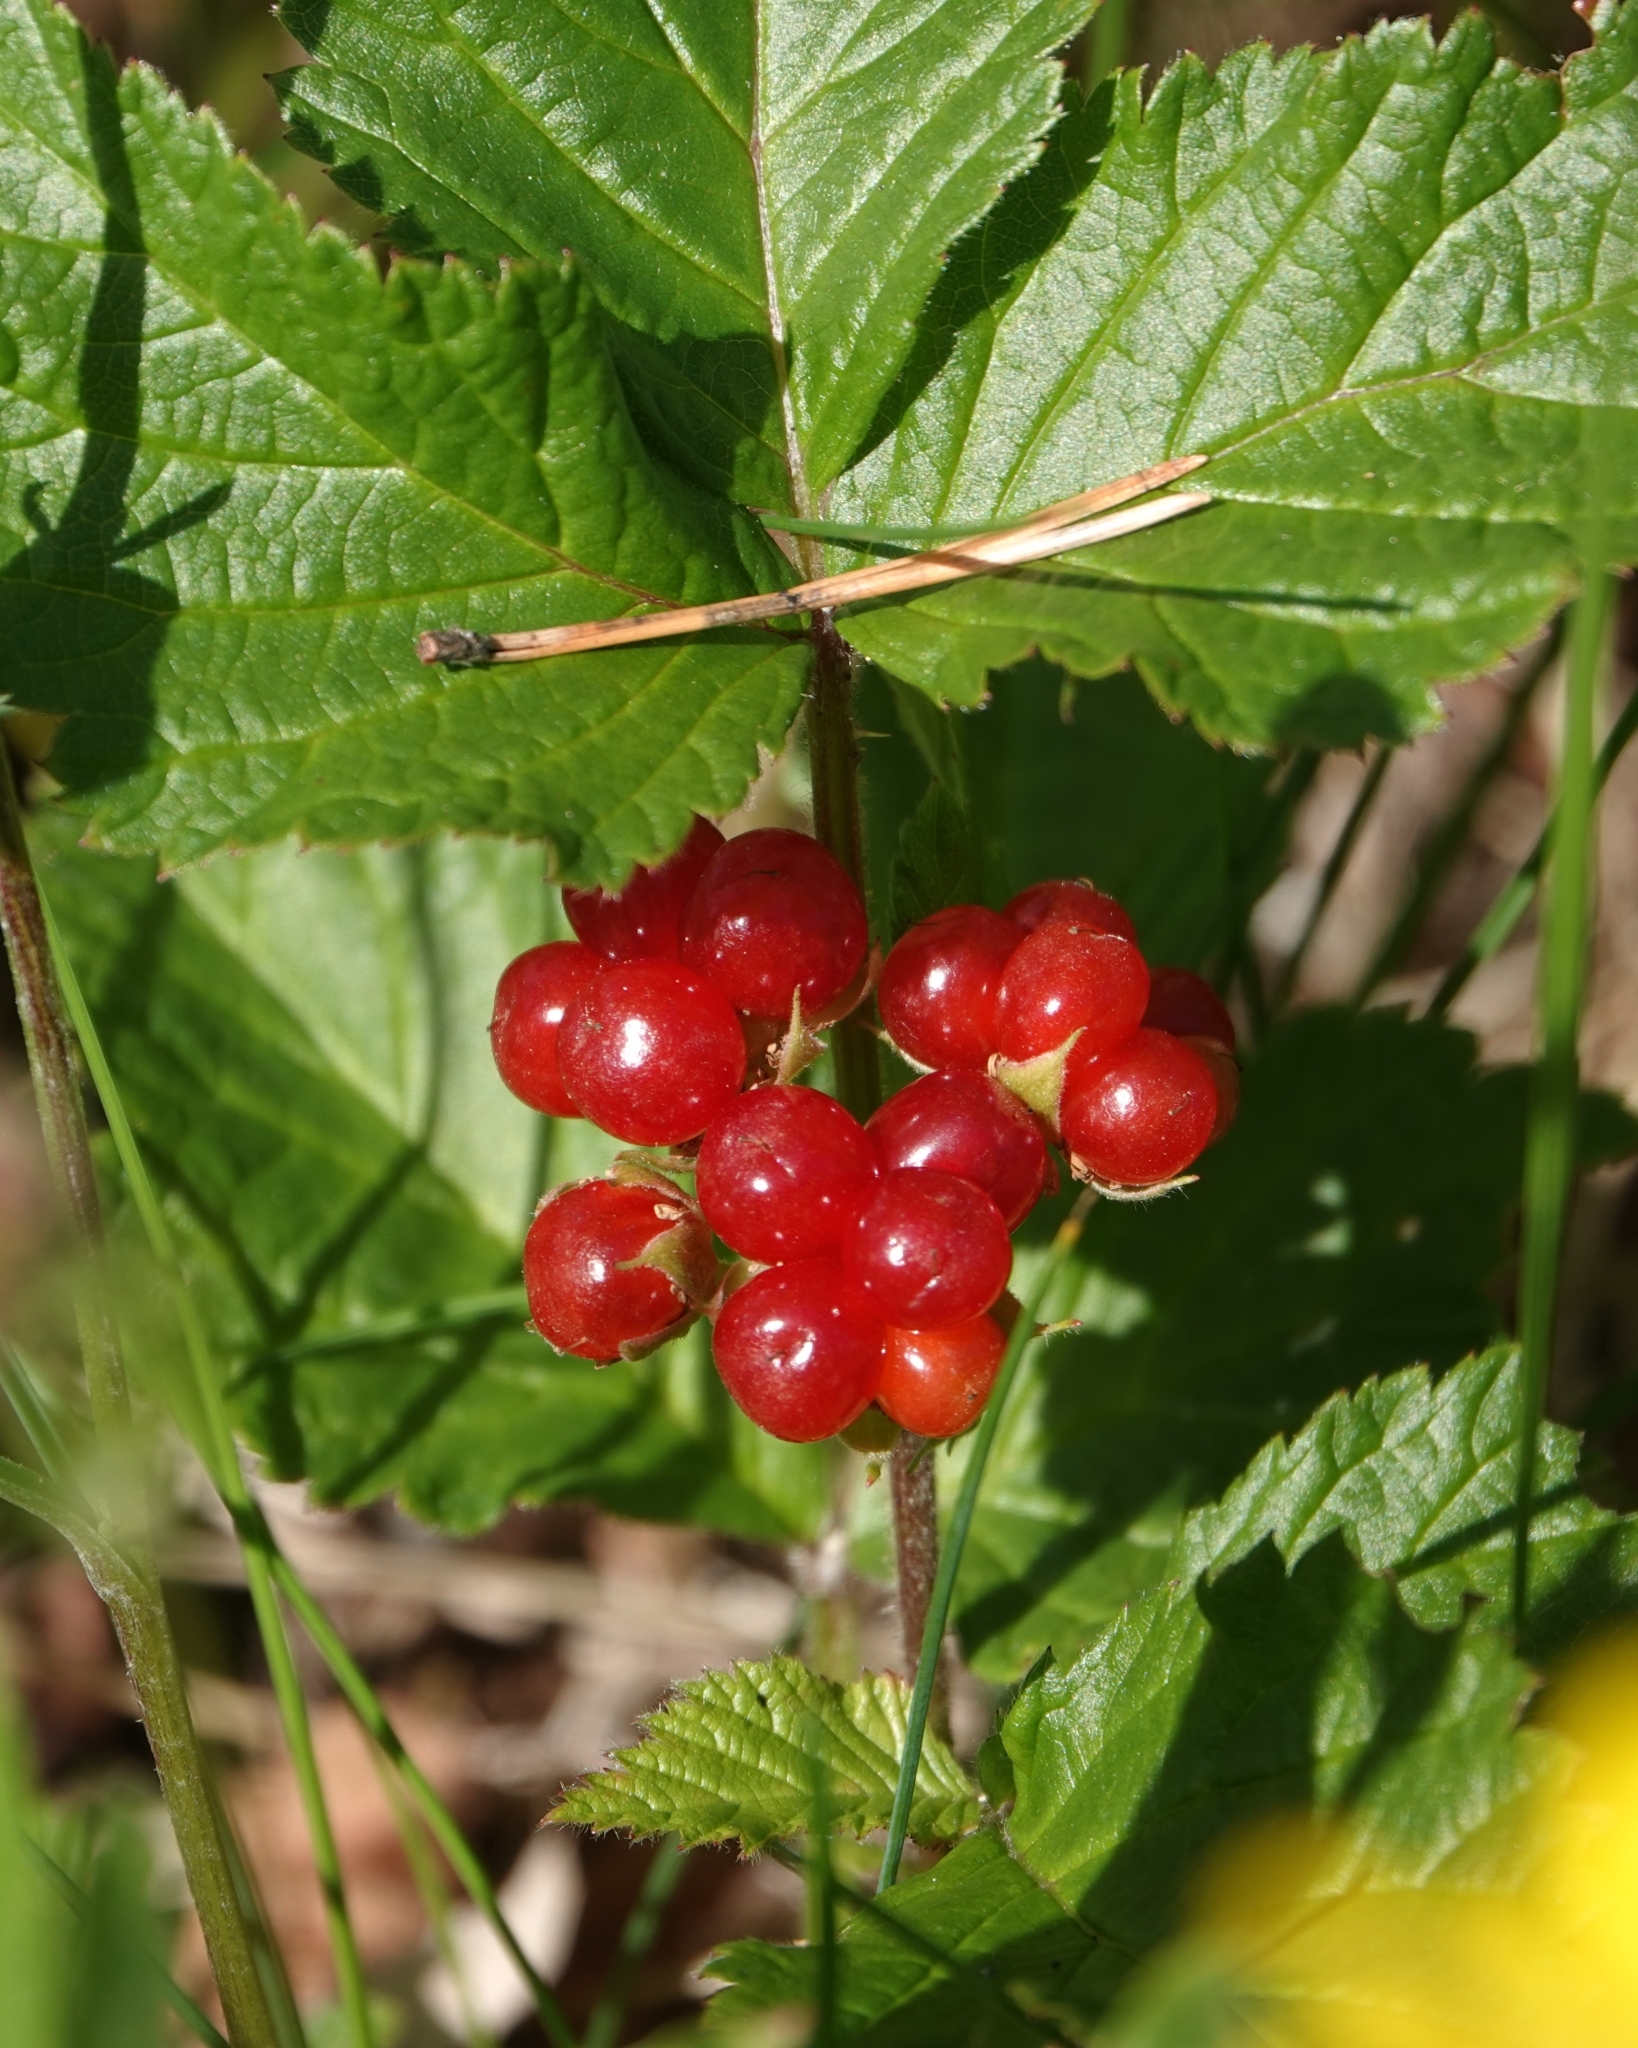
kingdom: Plantae
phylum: Tracheophyta
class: Magnoliopsida
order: Rosales
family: Rosaceae
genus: Rubus
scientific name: Rubus saxatilis
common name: Stone bramble
